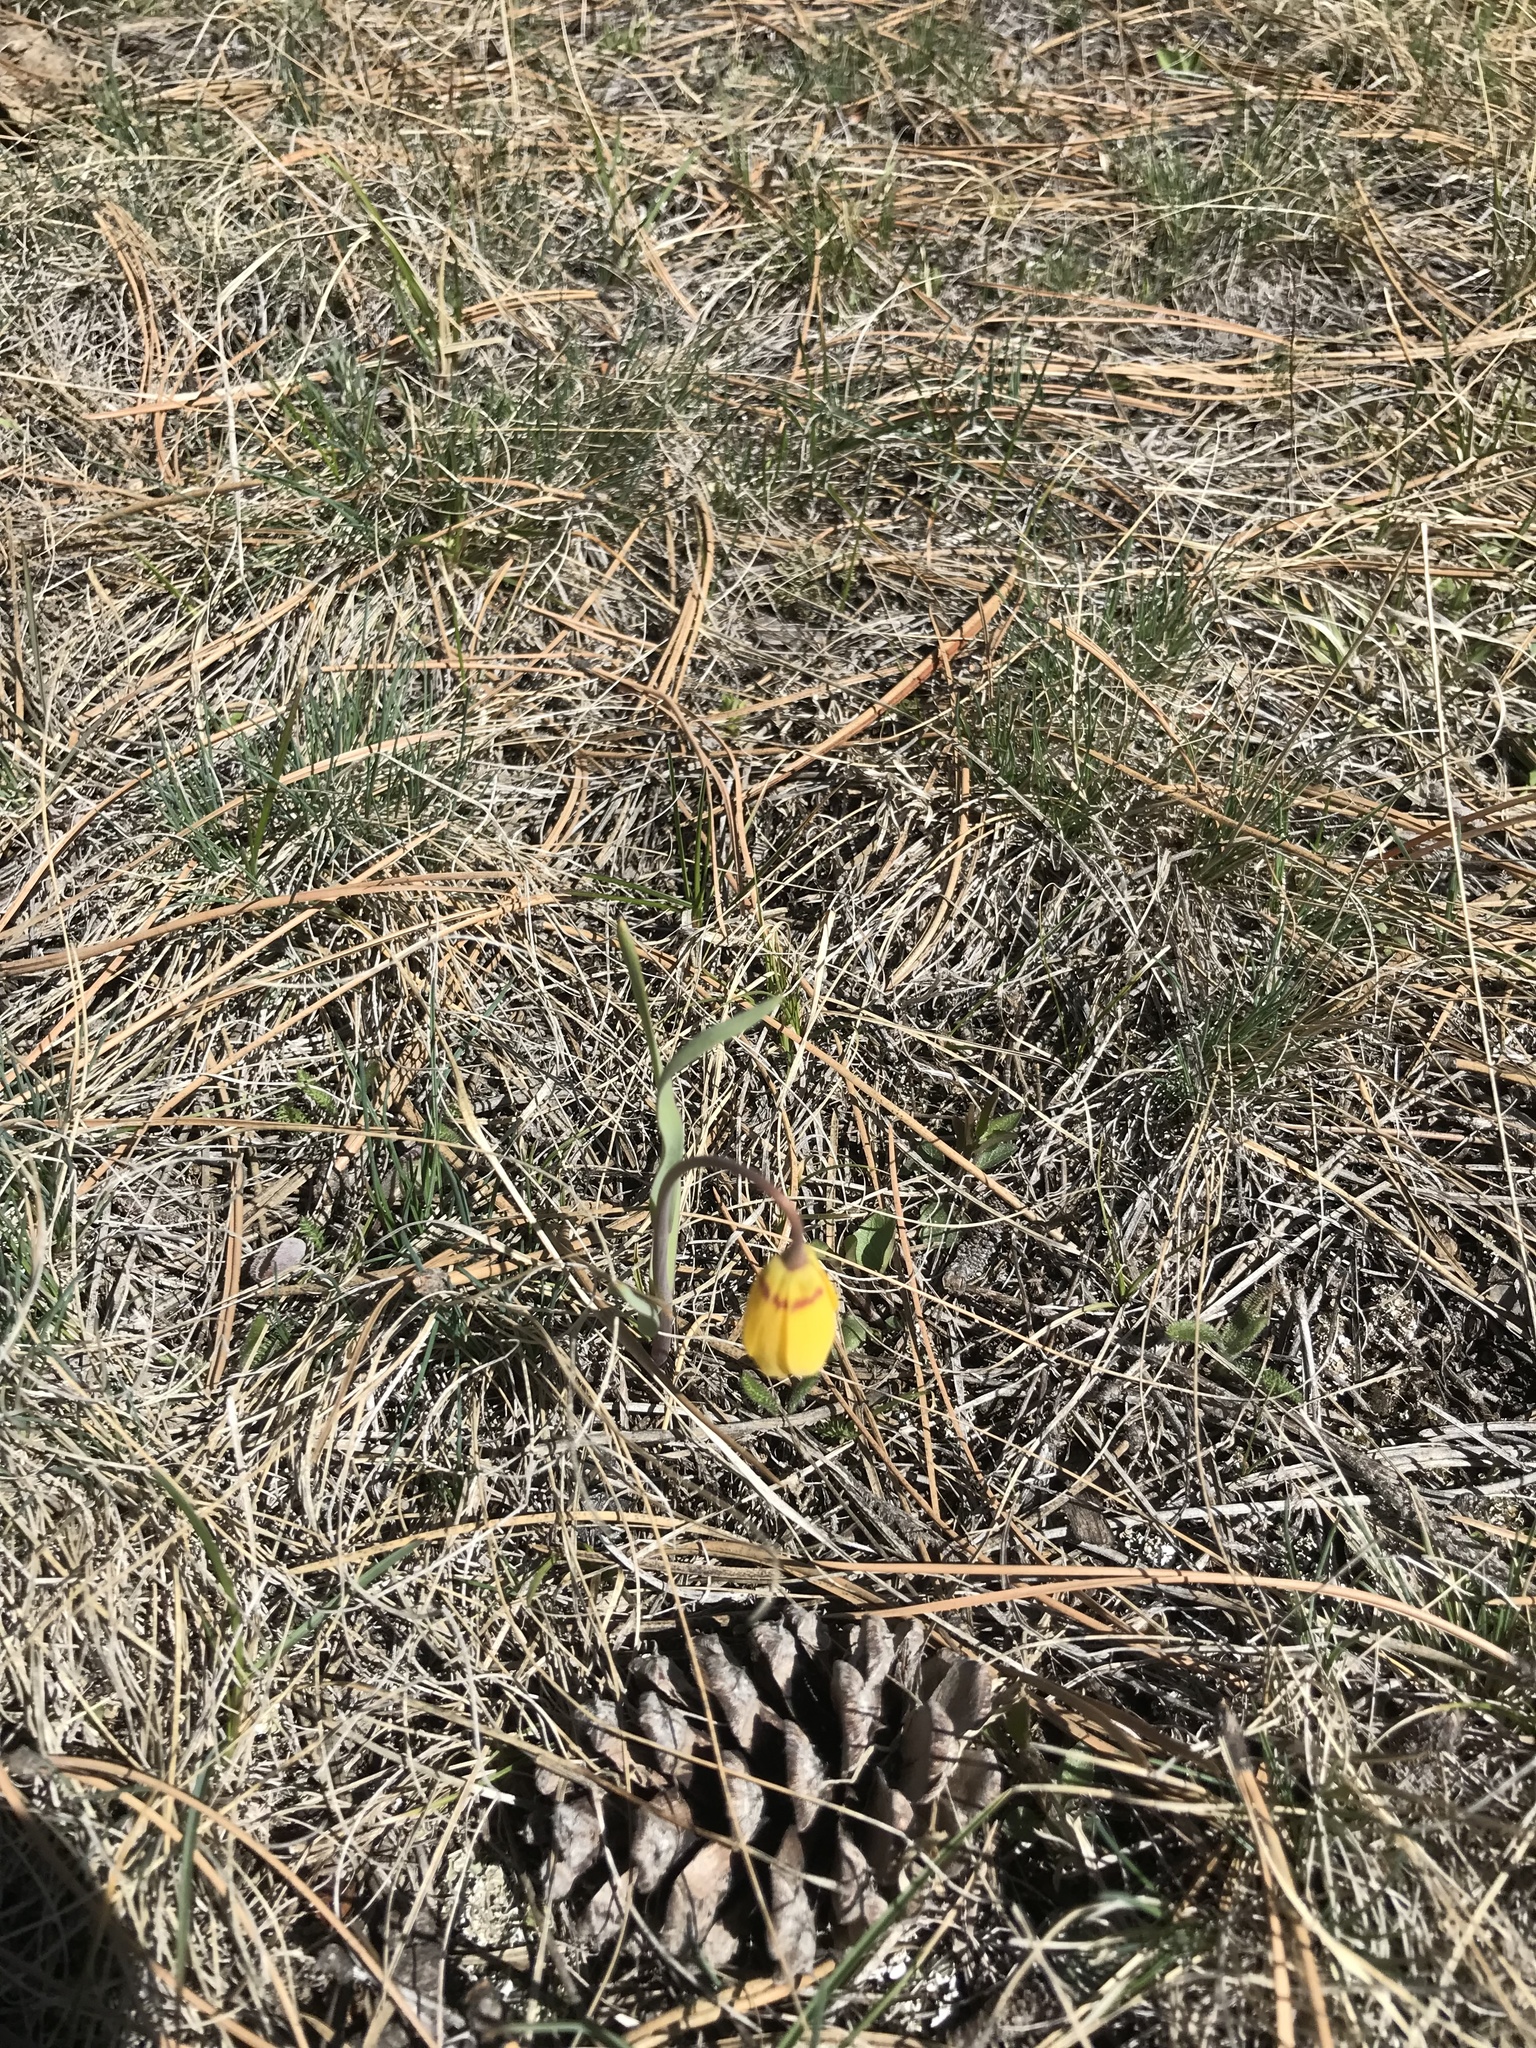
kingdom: Plantae
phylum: Tracheophyta
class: Liliopsida
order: Liliales
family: Liliaceae
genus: Fritillaria
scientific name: Fritillaria pudica
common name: Yellow fritillary
